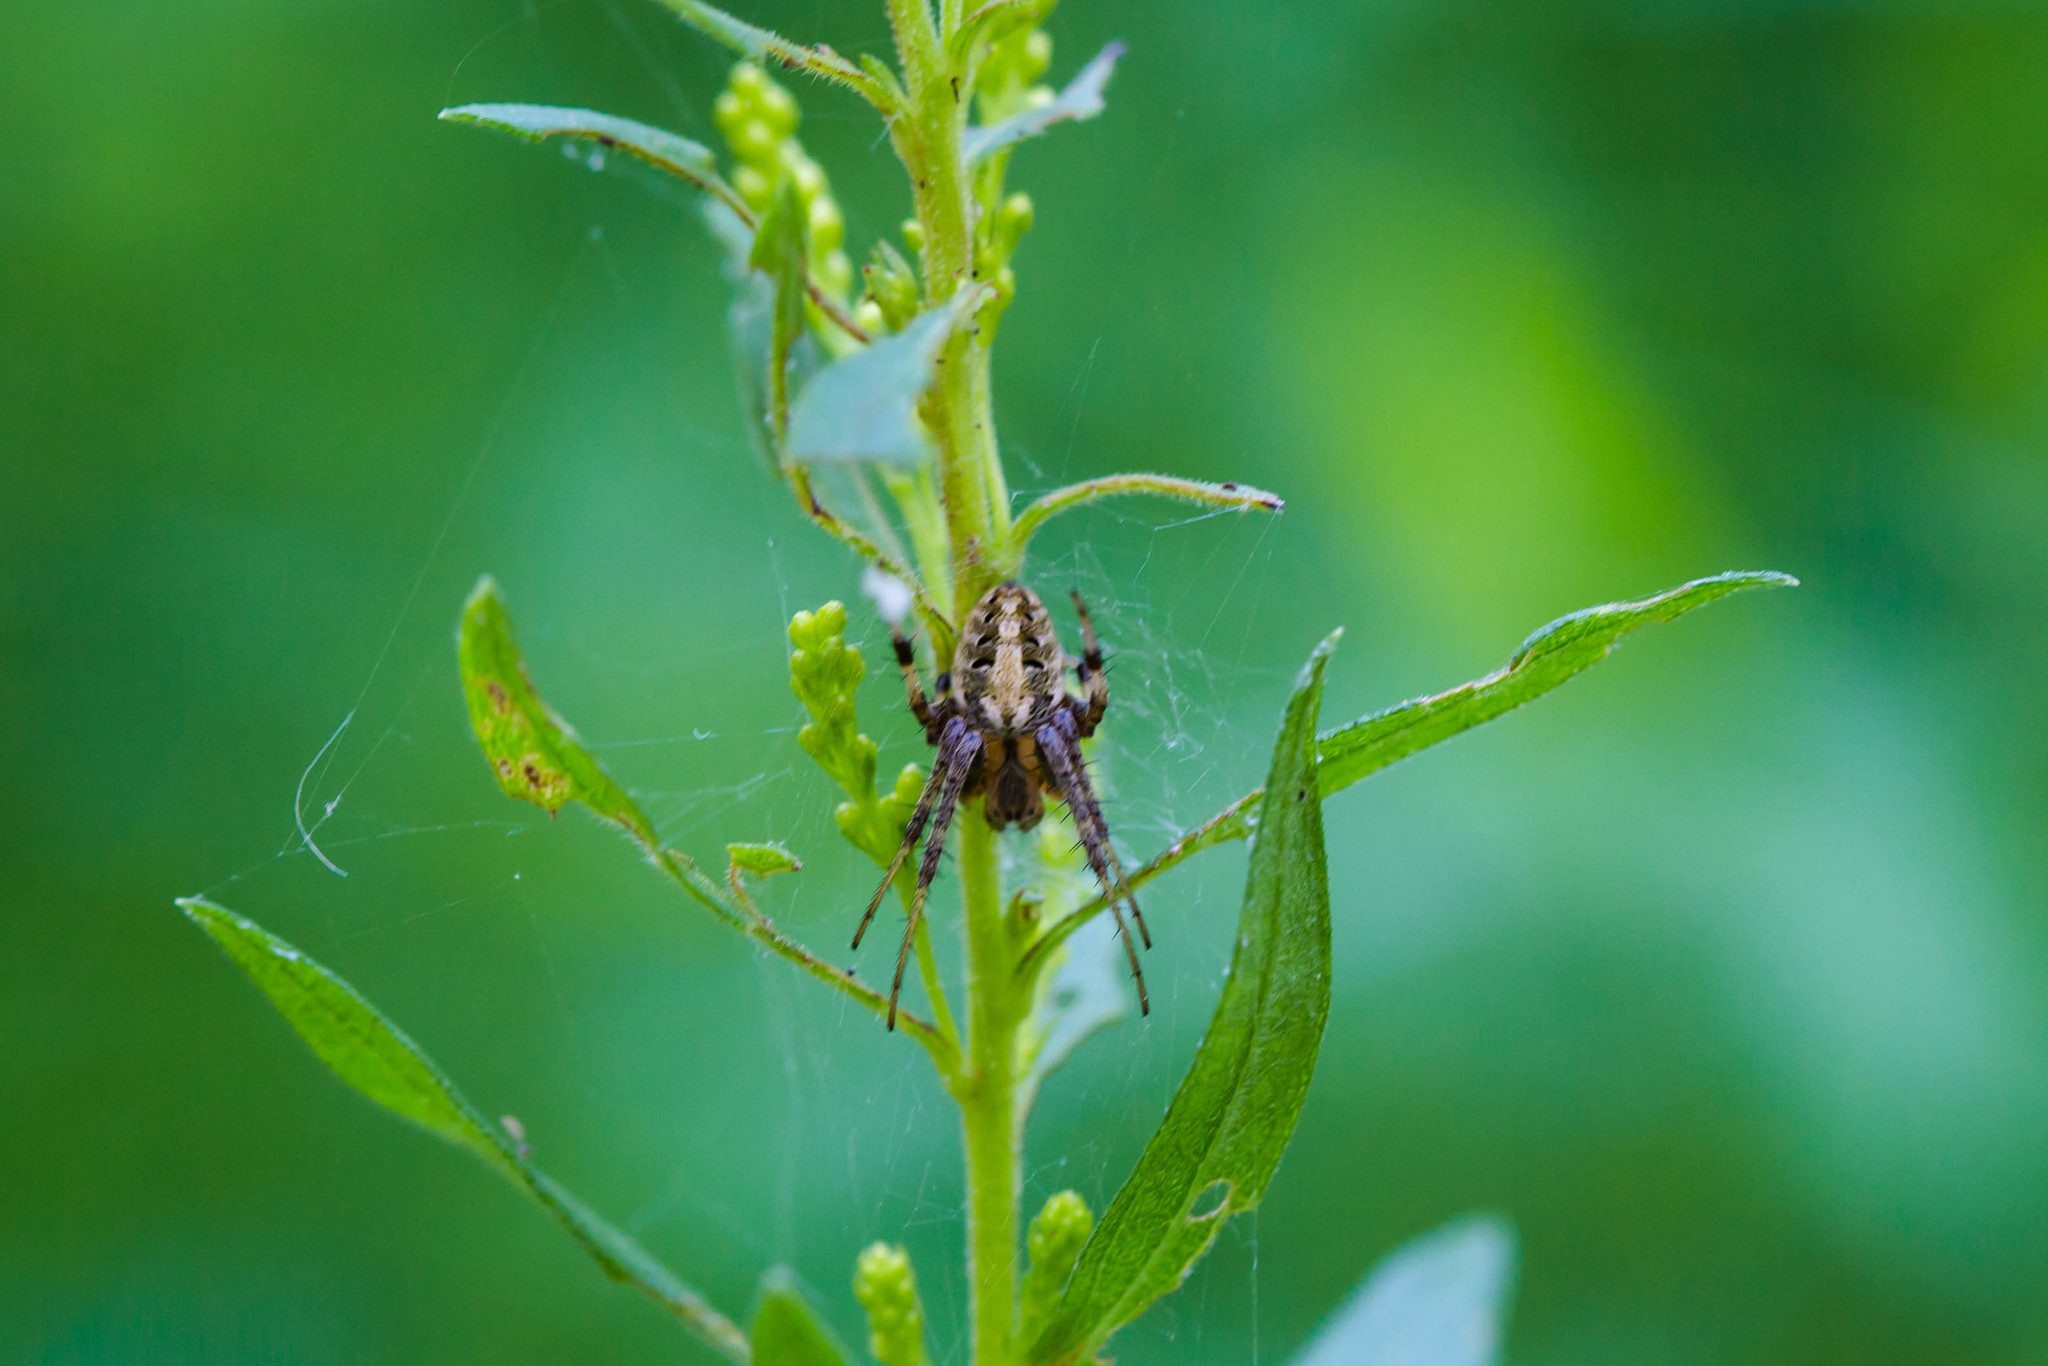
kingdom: Animalia
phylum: Arthropoda
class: Arachnida
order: Araneae
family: Araneidae
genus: Neoscona
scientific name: Neoscona arabesca
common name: Orb weavers
